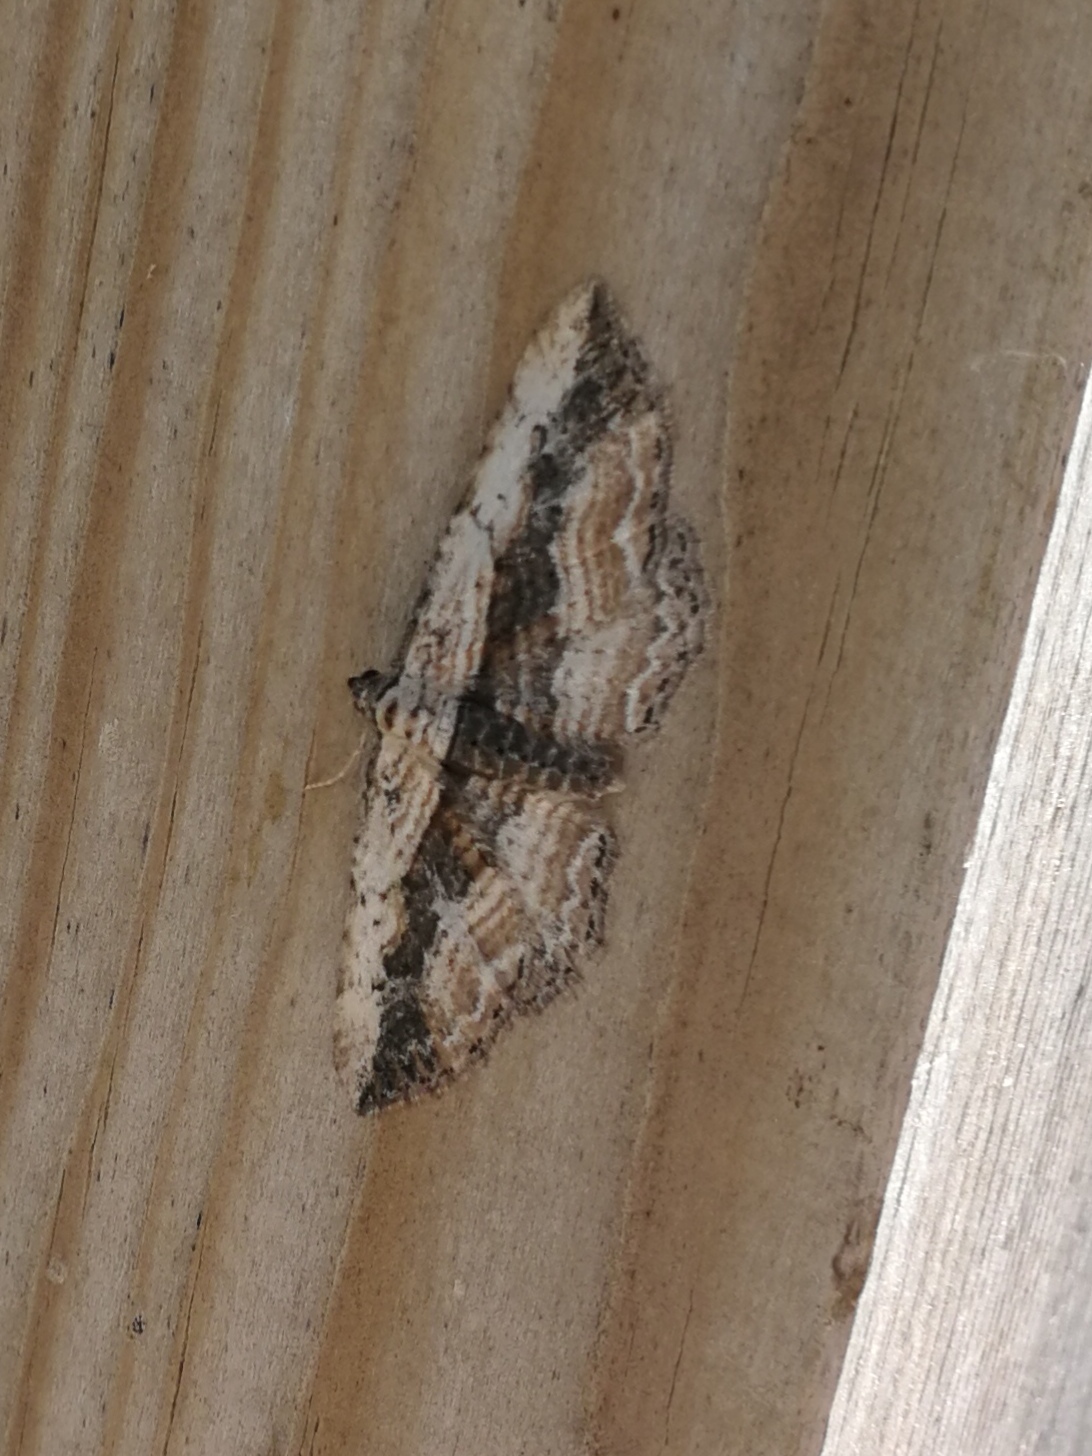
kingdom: Animalia
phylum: Arthropoda
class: Insecta
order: Lepidoptera
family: Geometridae
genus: Horisme
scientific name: Horisme vitalbata
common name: Small waved umber
